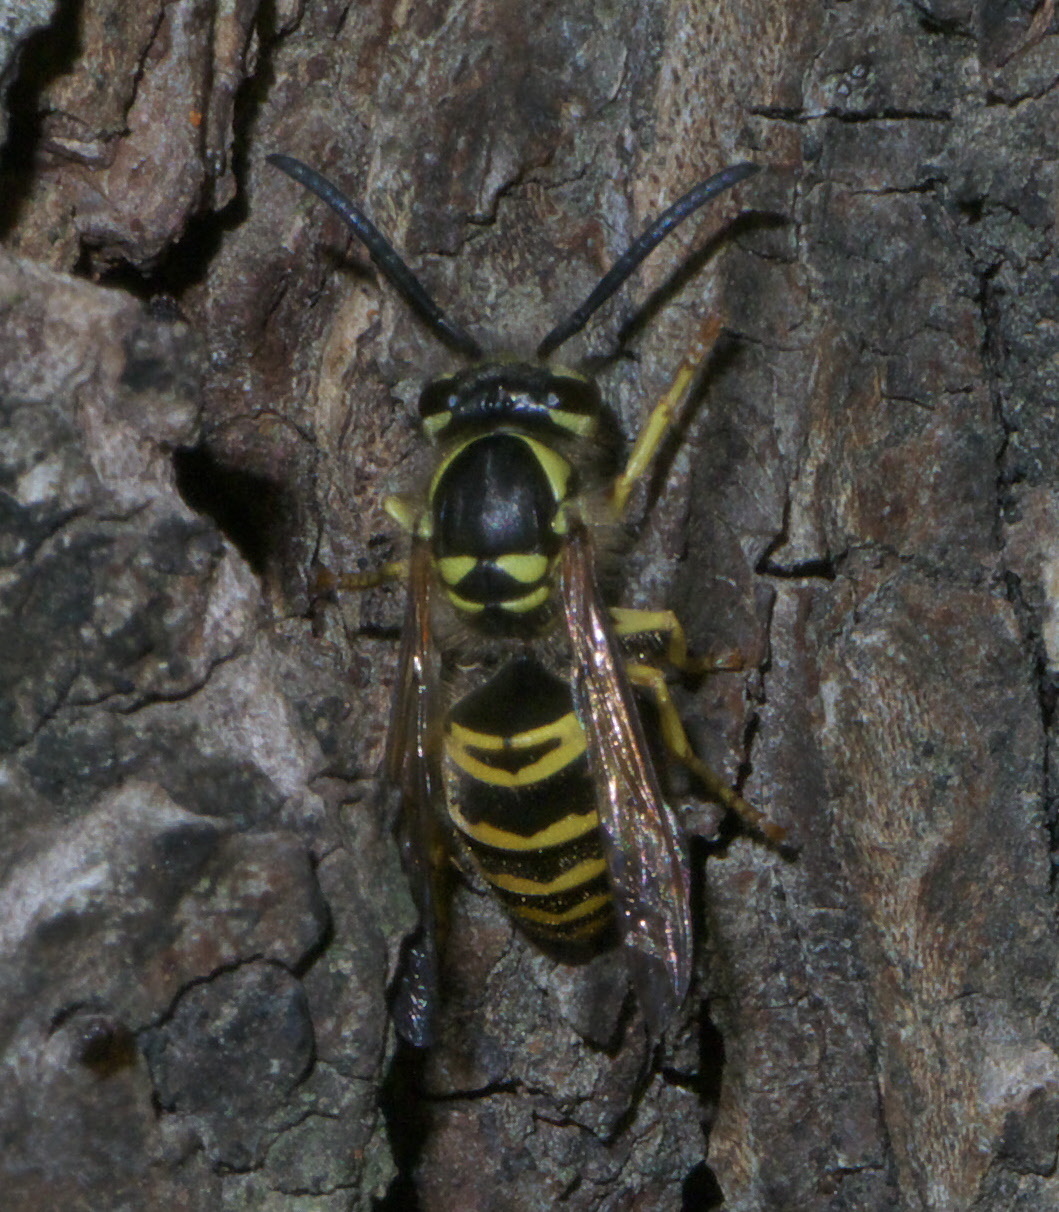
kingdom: Animalia
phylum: Arthropoda
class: Insecta
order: Hymenoptera
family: Vespidae
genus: Vespula
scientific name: Vespula maculifrons
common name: Eastern yellowjacket
